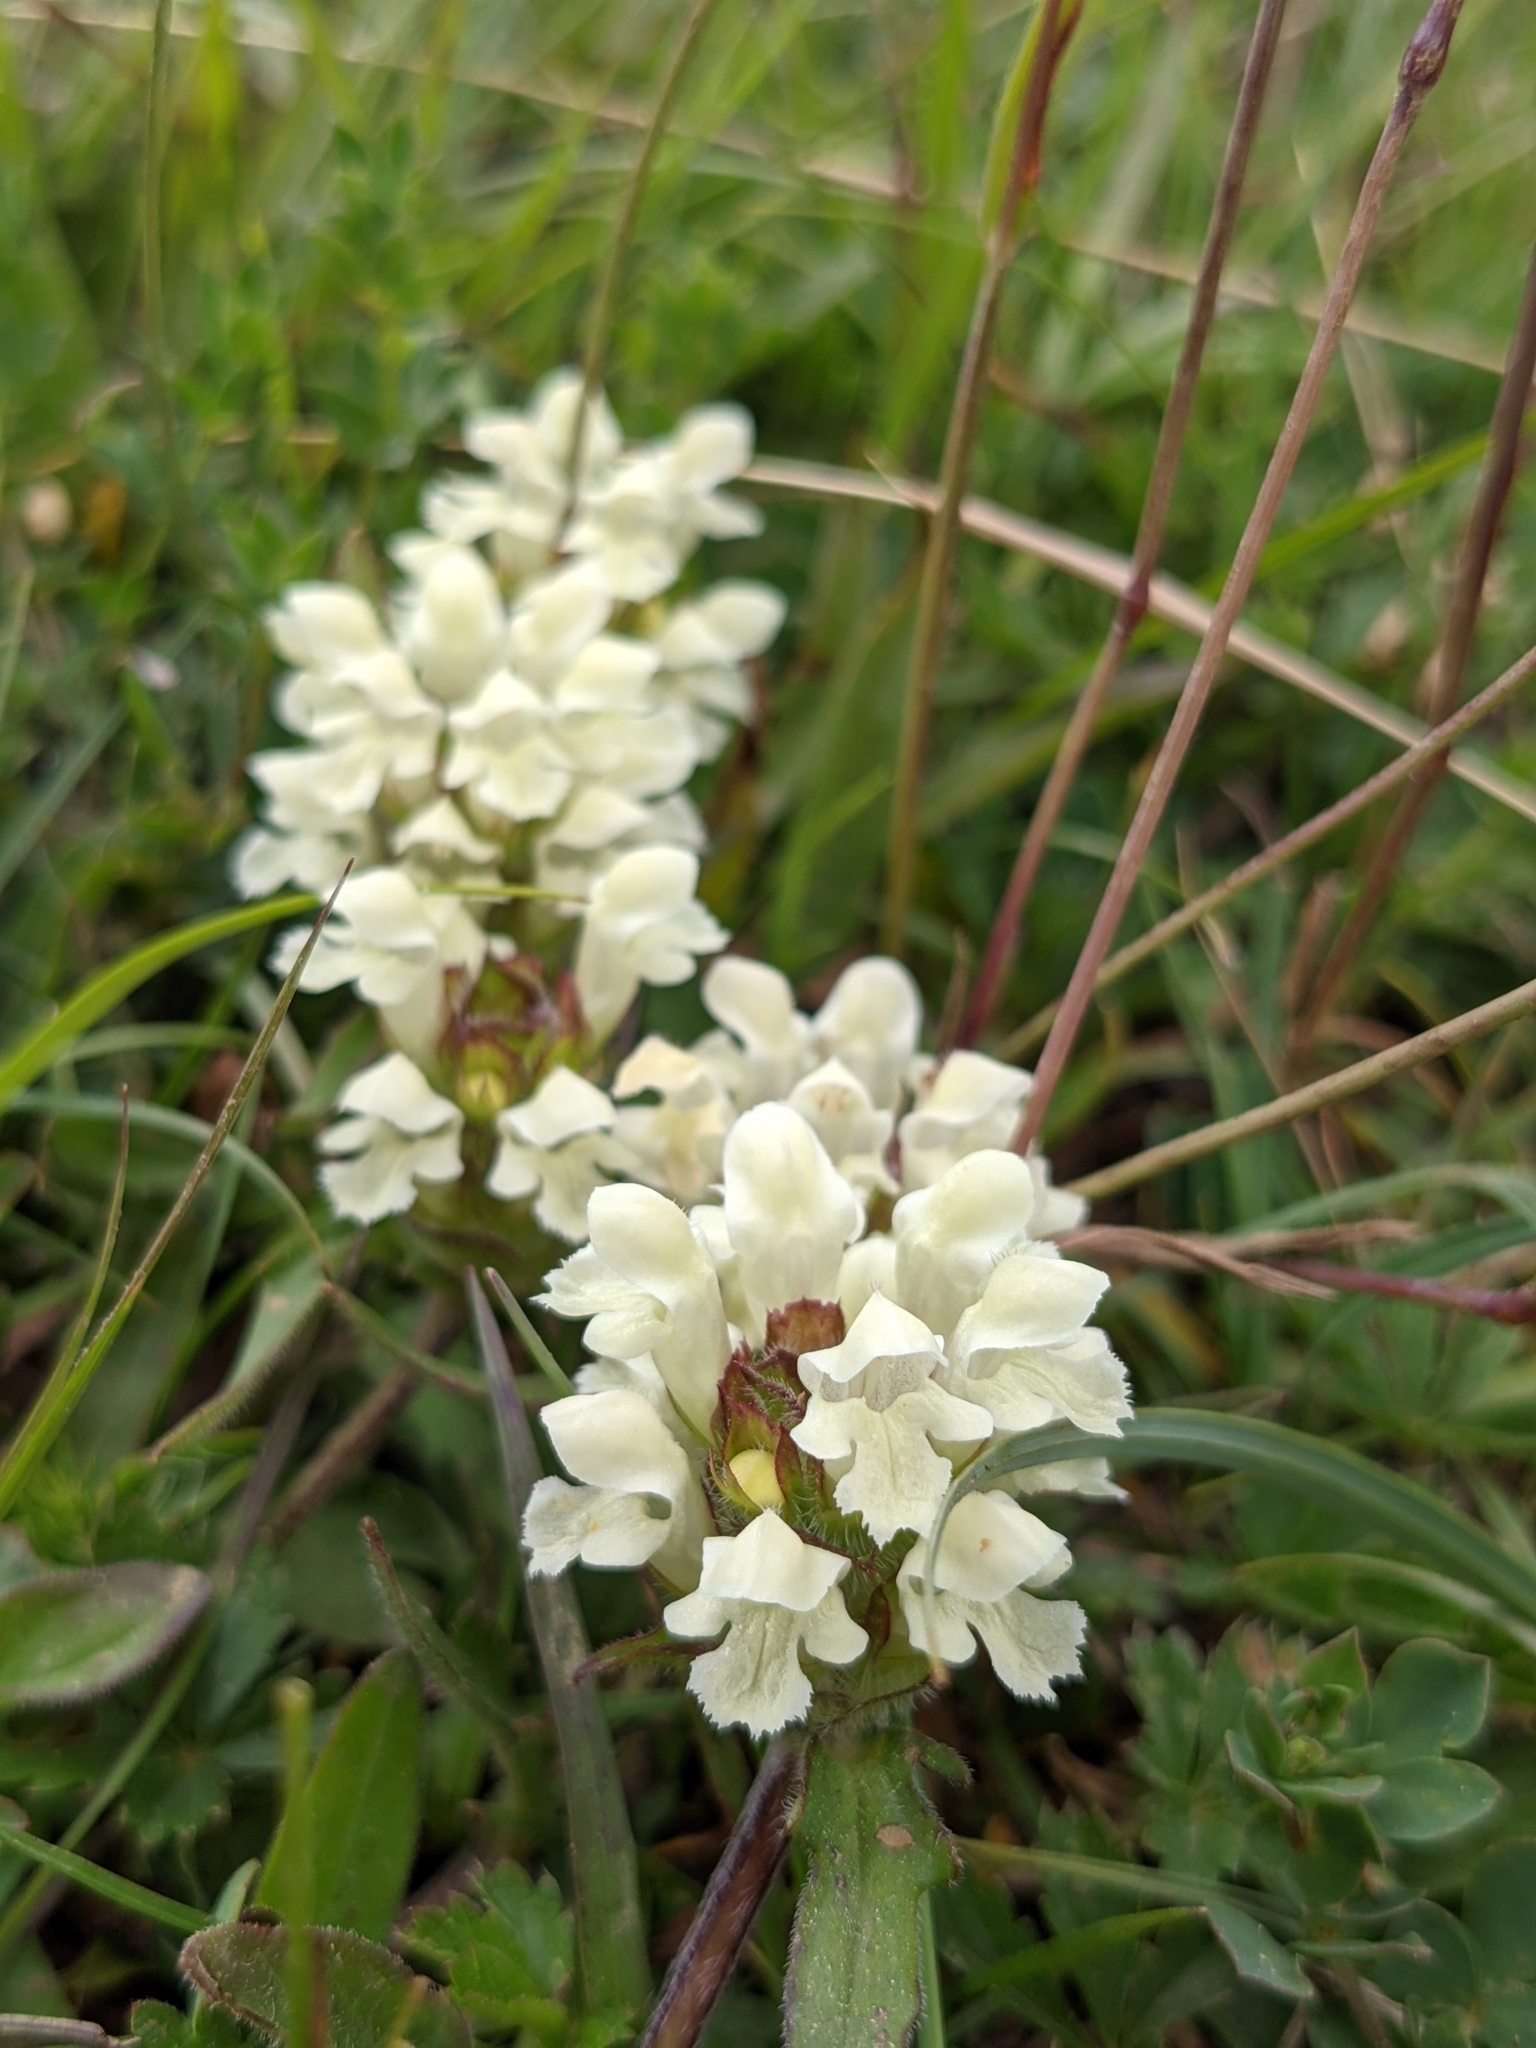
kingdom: Plantae
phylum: Tracheophyta
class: Magnoliopsida
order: Lamiales
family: Lamiaceae
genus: Prunella
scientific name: Prunella laciniata
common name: Cut-leaved selfheal
